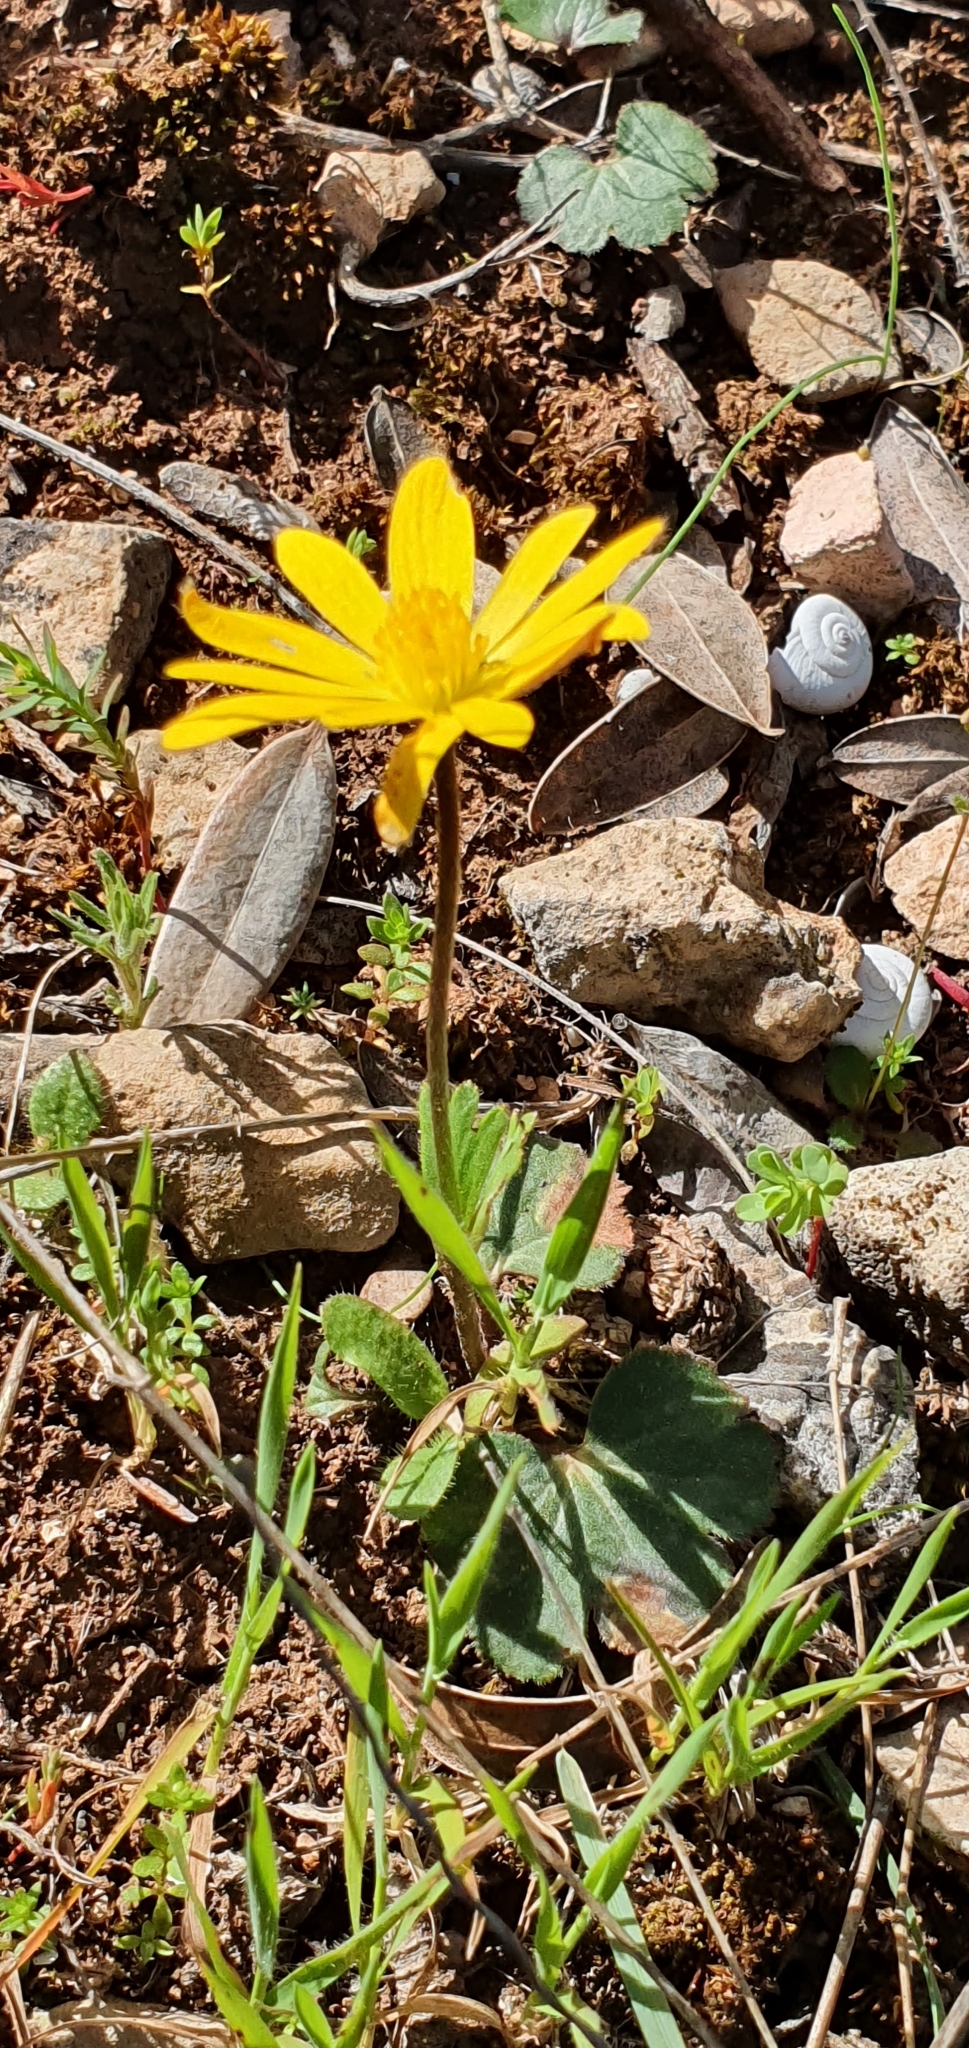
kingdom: Plantae
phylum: Tracheophyta
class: Magnoliopsida
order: Ranunculales
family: Ranunculaceae
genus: Anemone
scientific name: Anemone palmata
